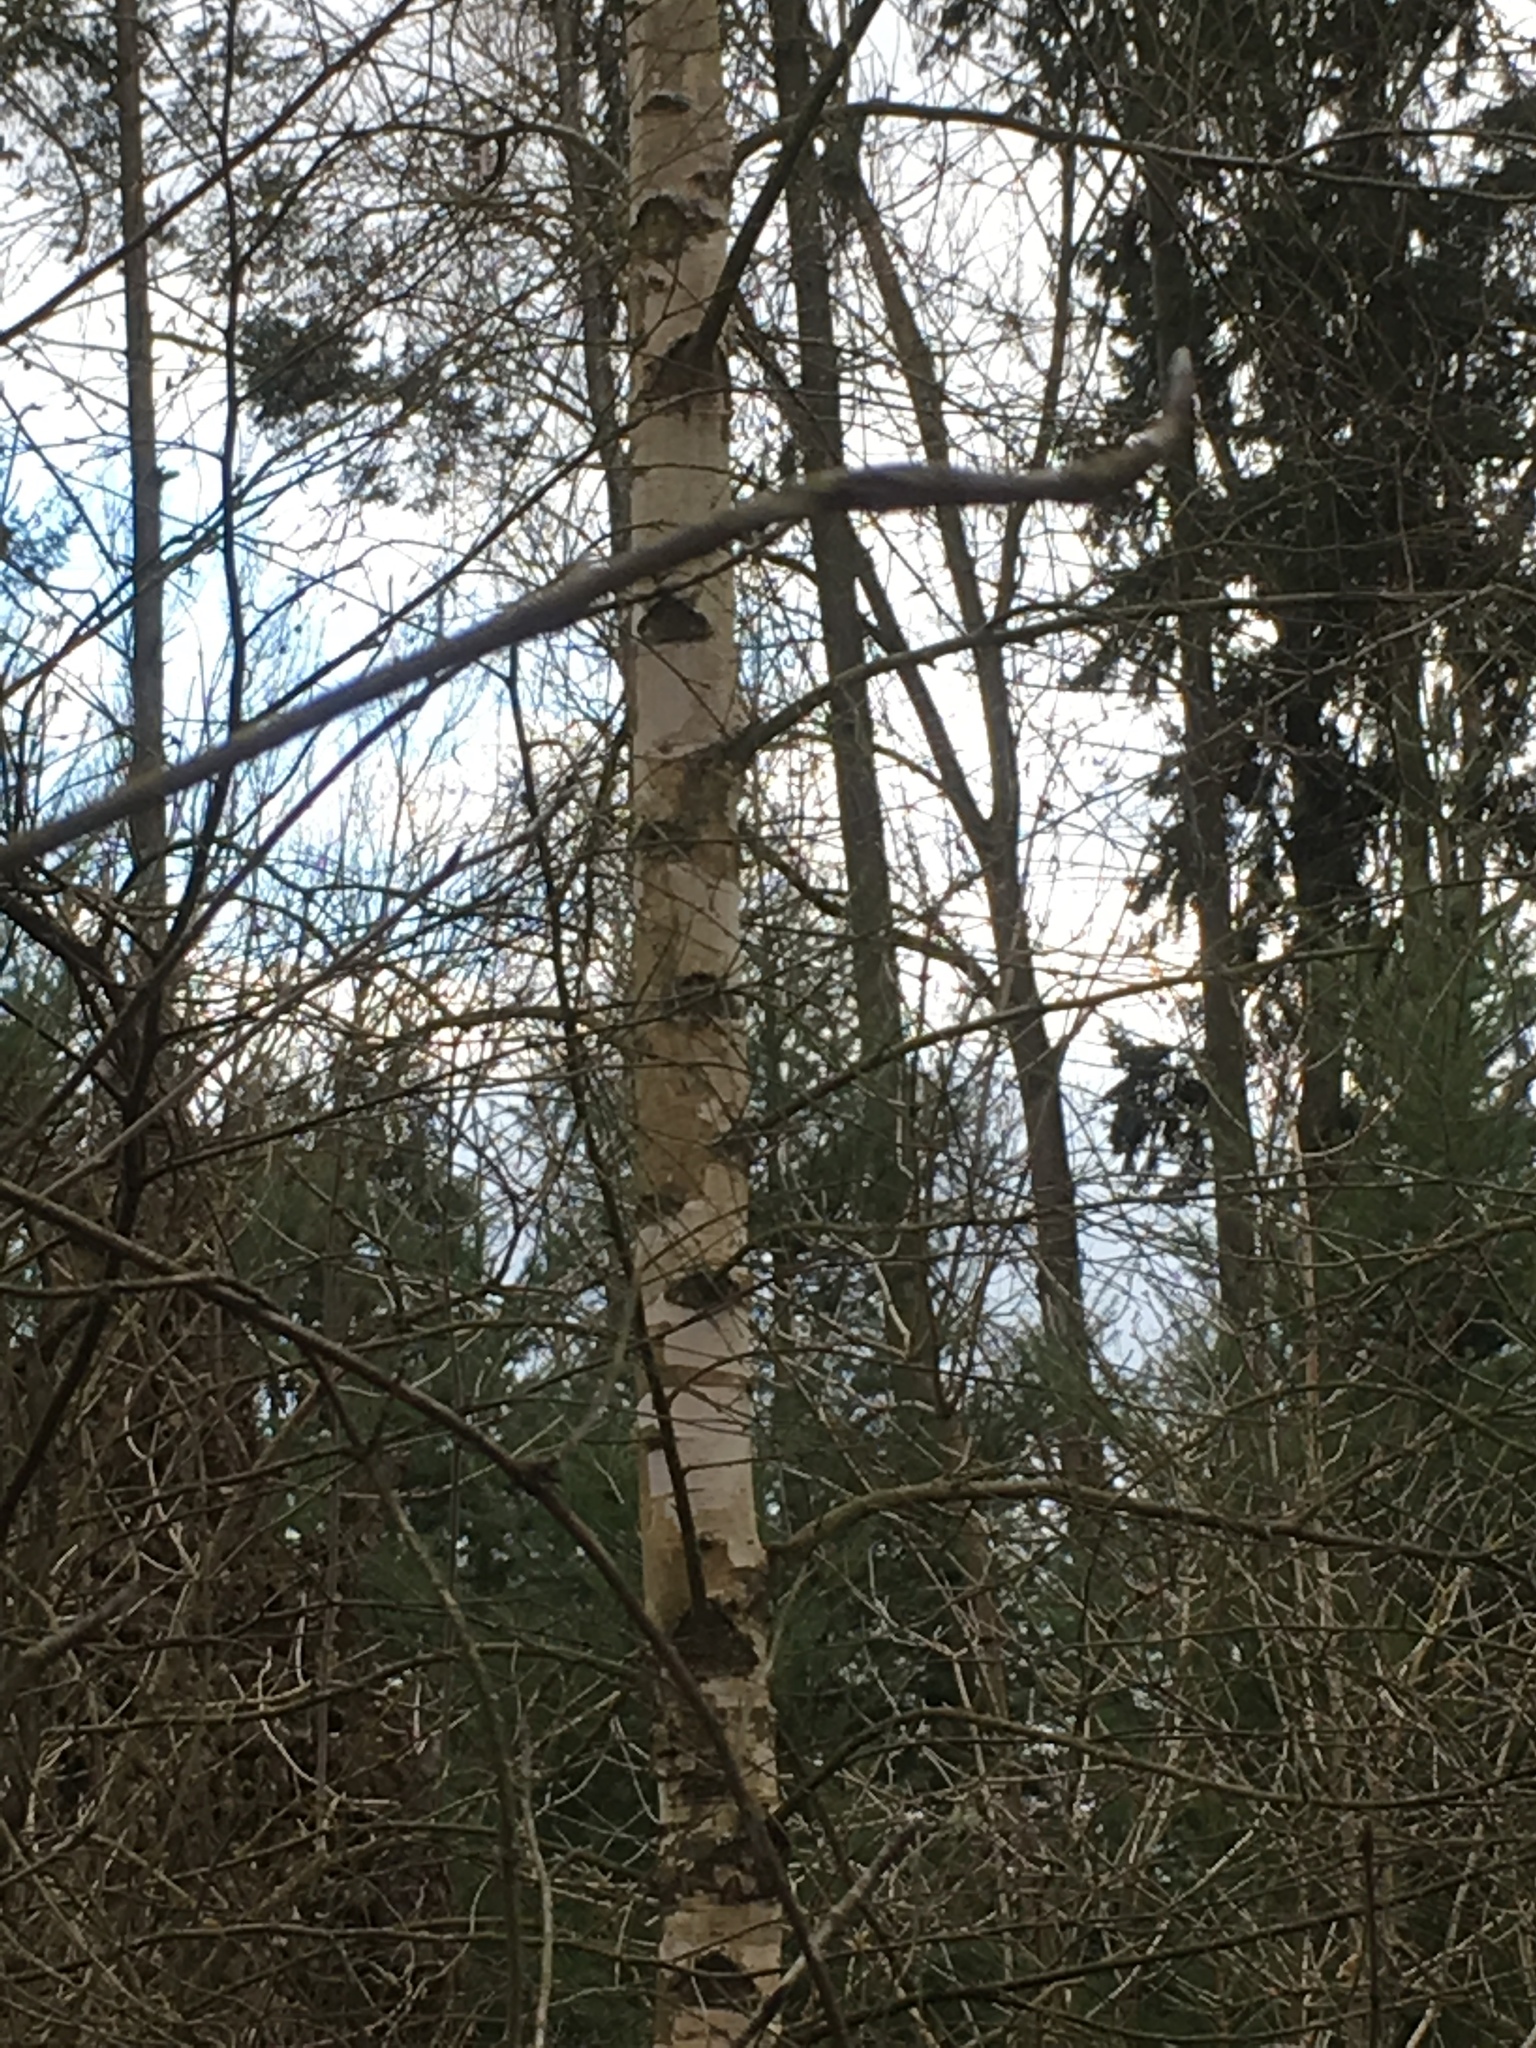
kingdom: Plantae
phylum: Tracheophyta
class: Magnoliopsida
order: Fagales
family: Betulaceae
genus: Betula
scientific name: Betula pendula
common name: Silver birch
